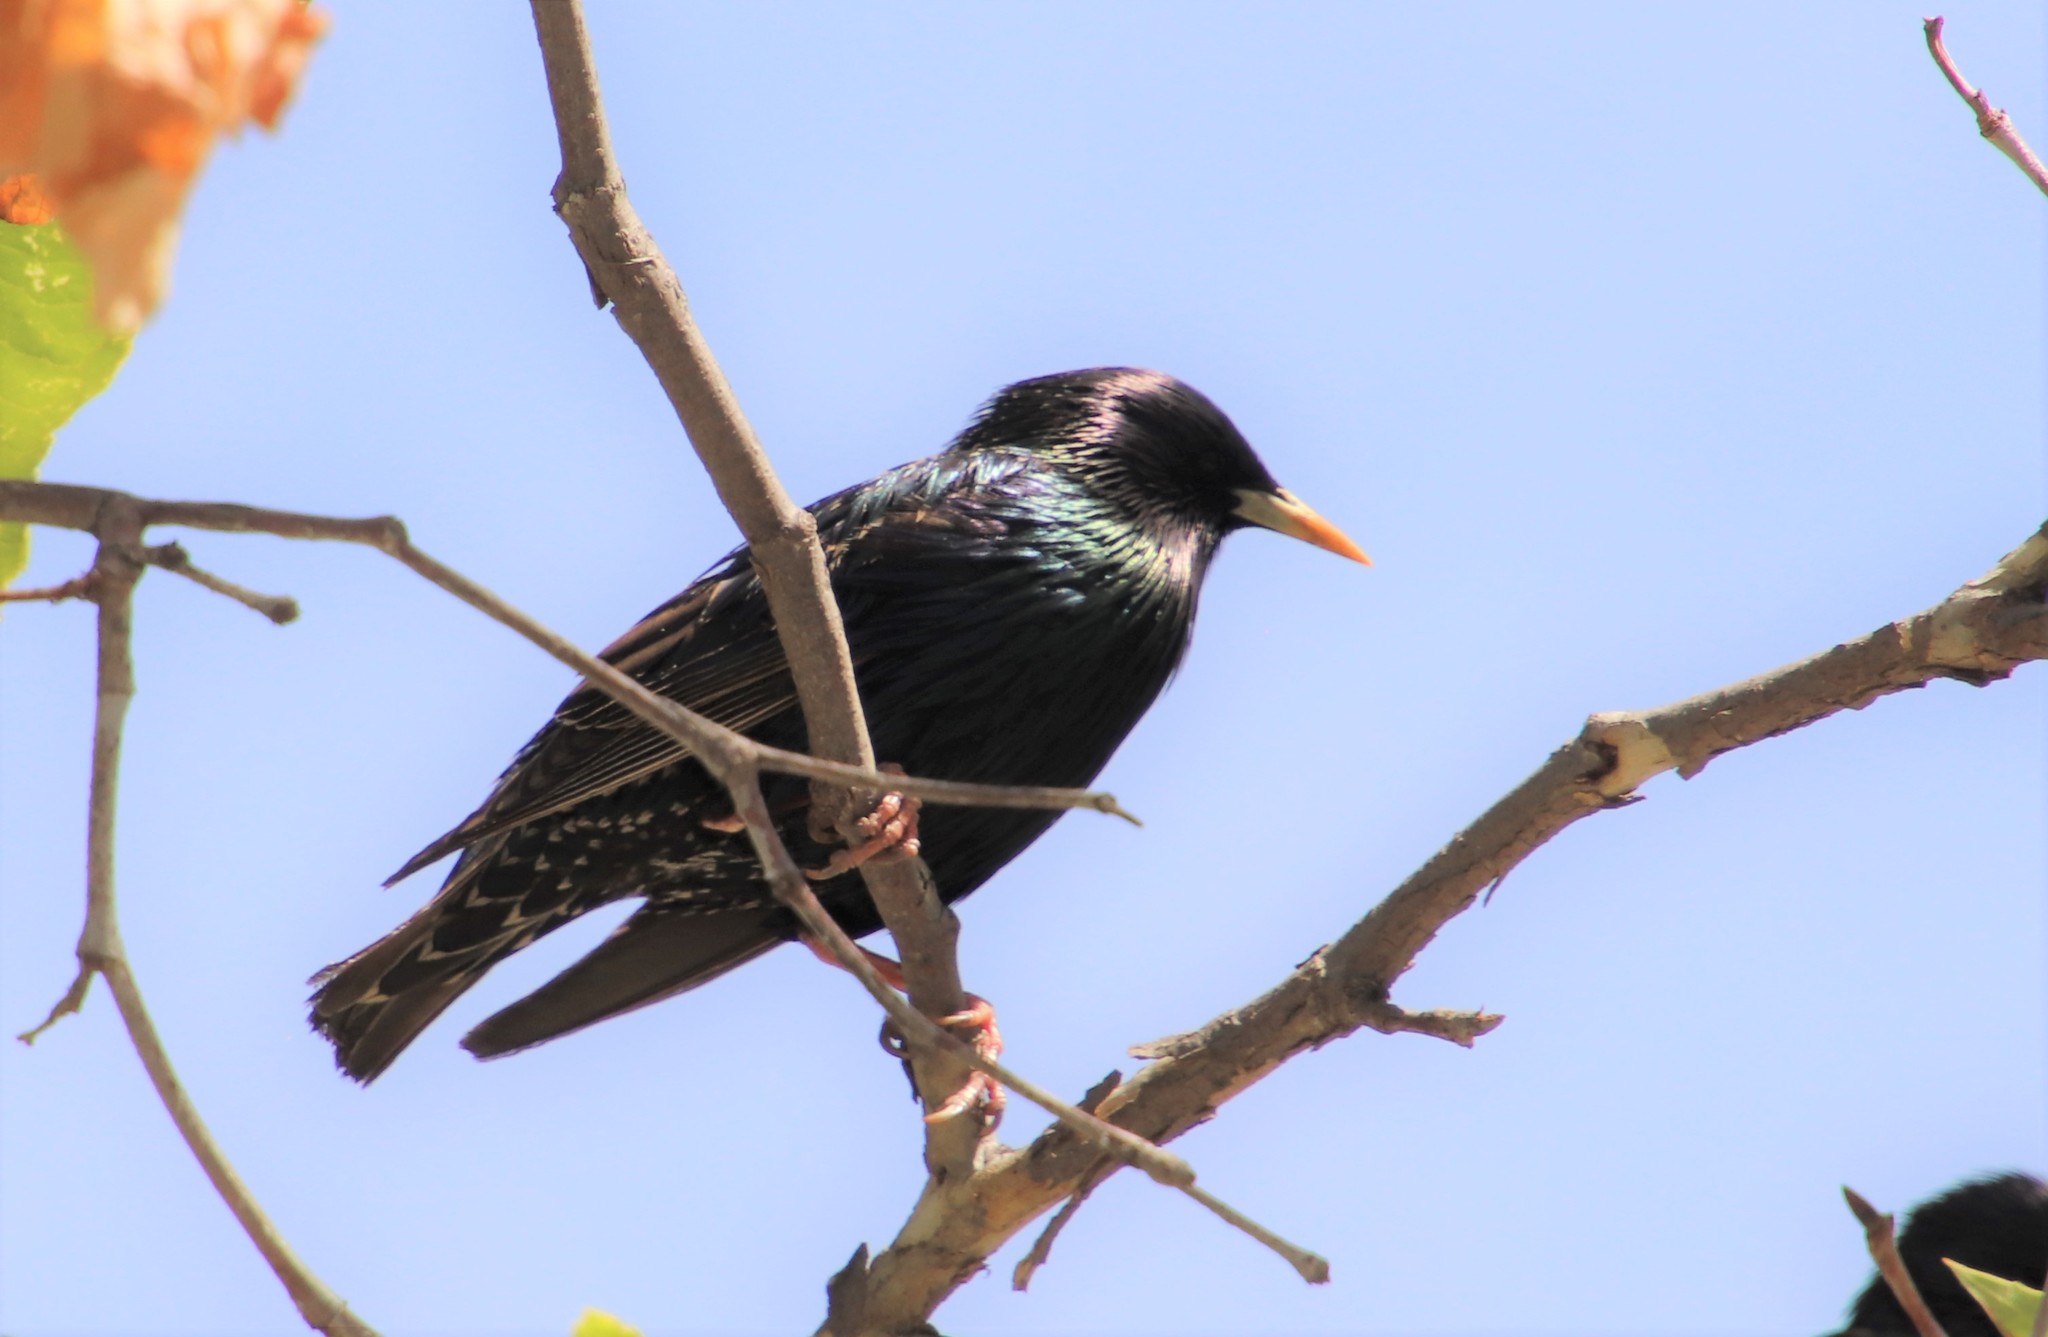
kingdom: Animalia
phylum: Chordata
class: Aves
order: Passeriformes
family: Sturnidae
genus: Sturnus
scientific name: Sturnus vulgaris
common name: Common starling
